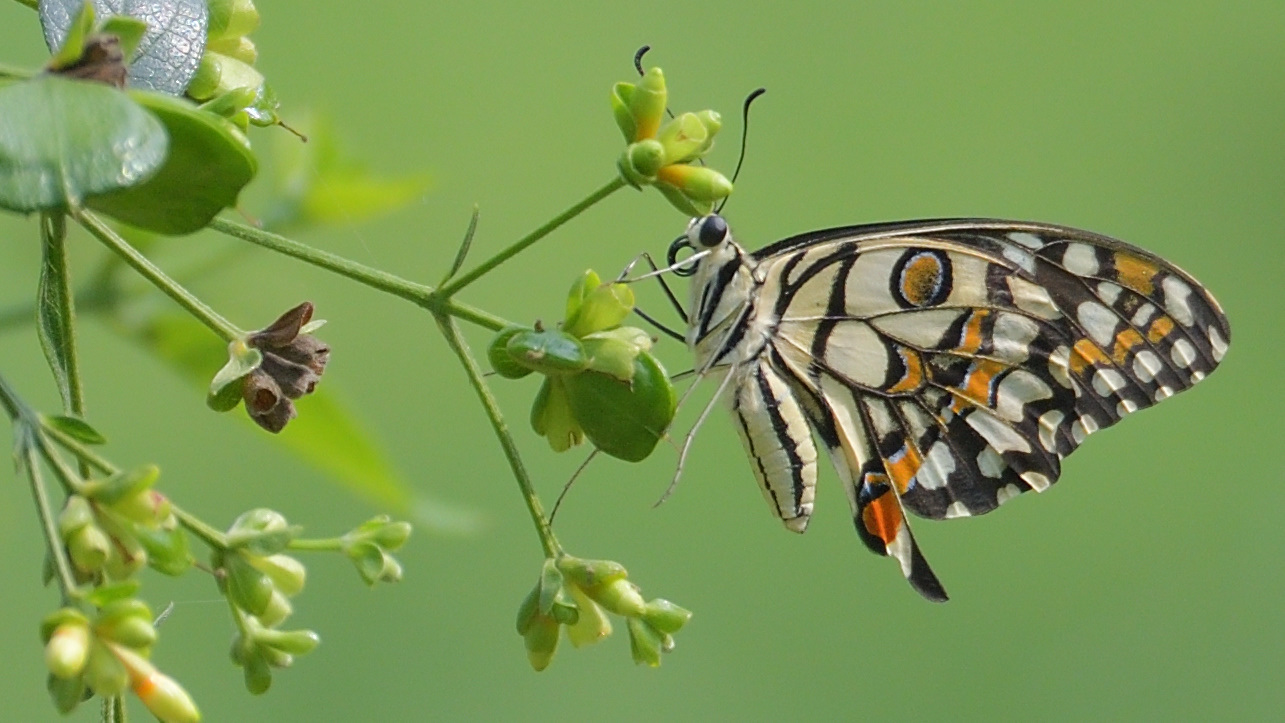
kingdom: Animalia
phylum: Arthropoda
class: Insecta
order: Lepidoptera
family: Papilionidae
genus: Papilio
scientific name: Papilio demoleus
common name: Lime butterfly
